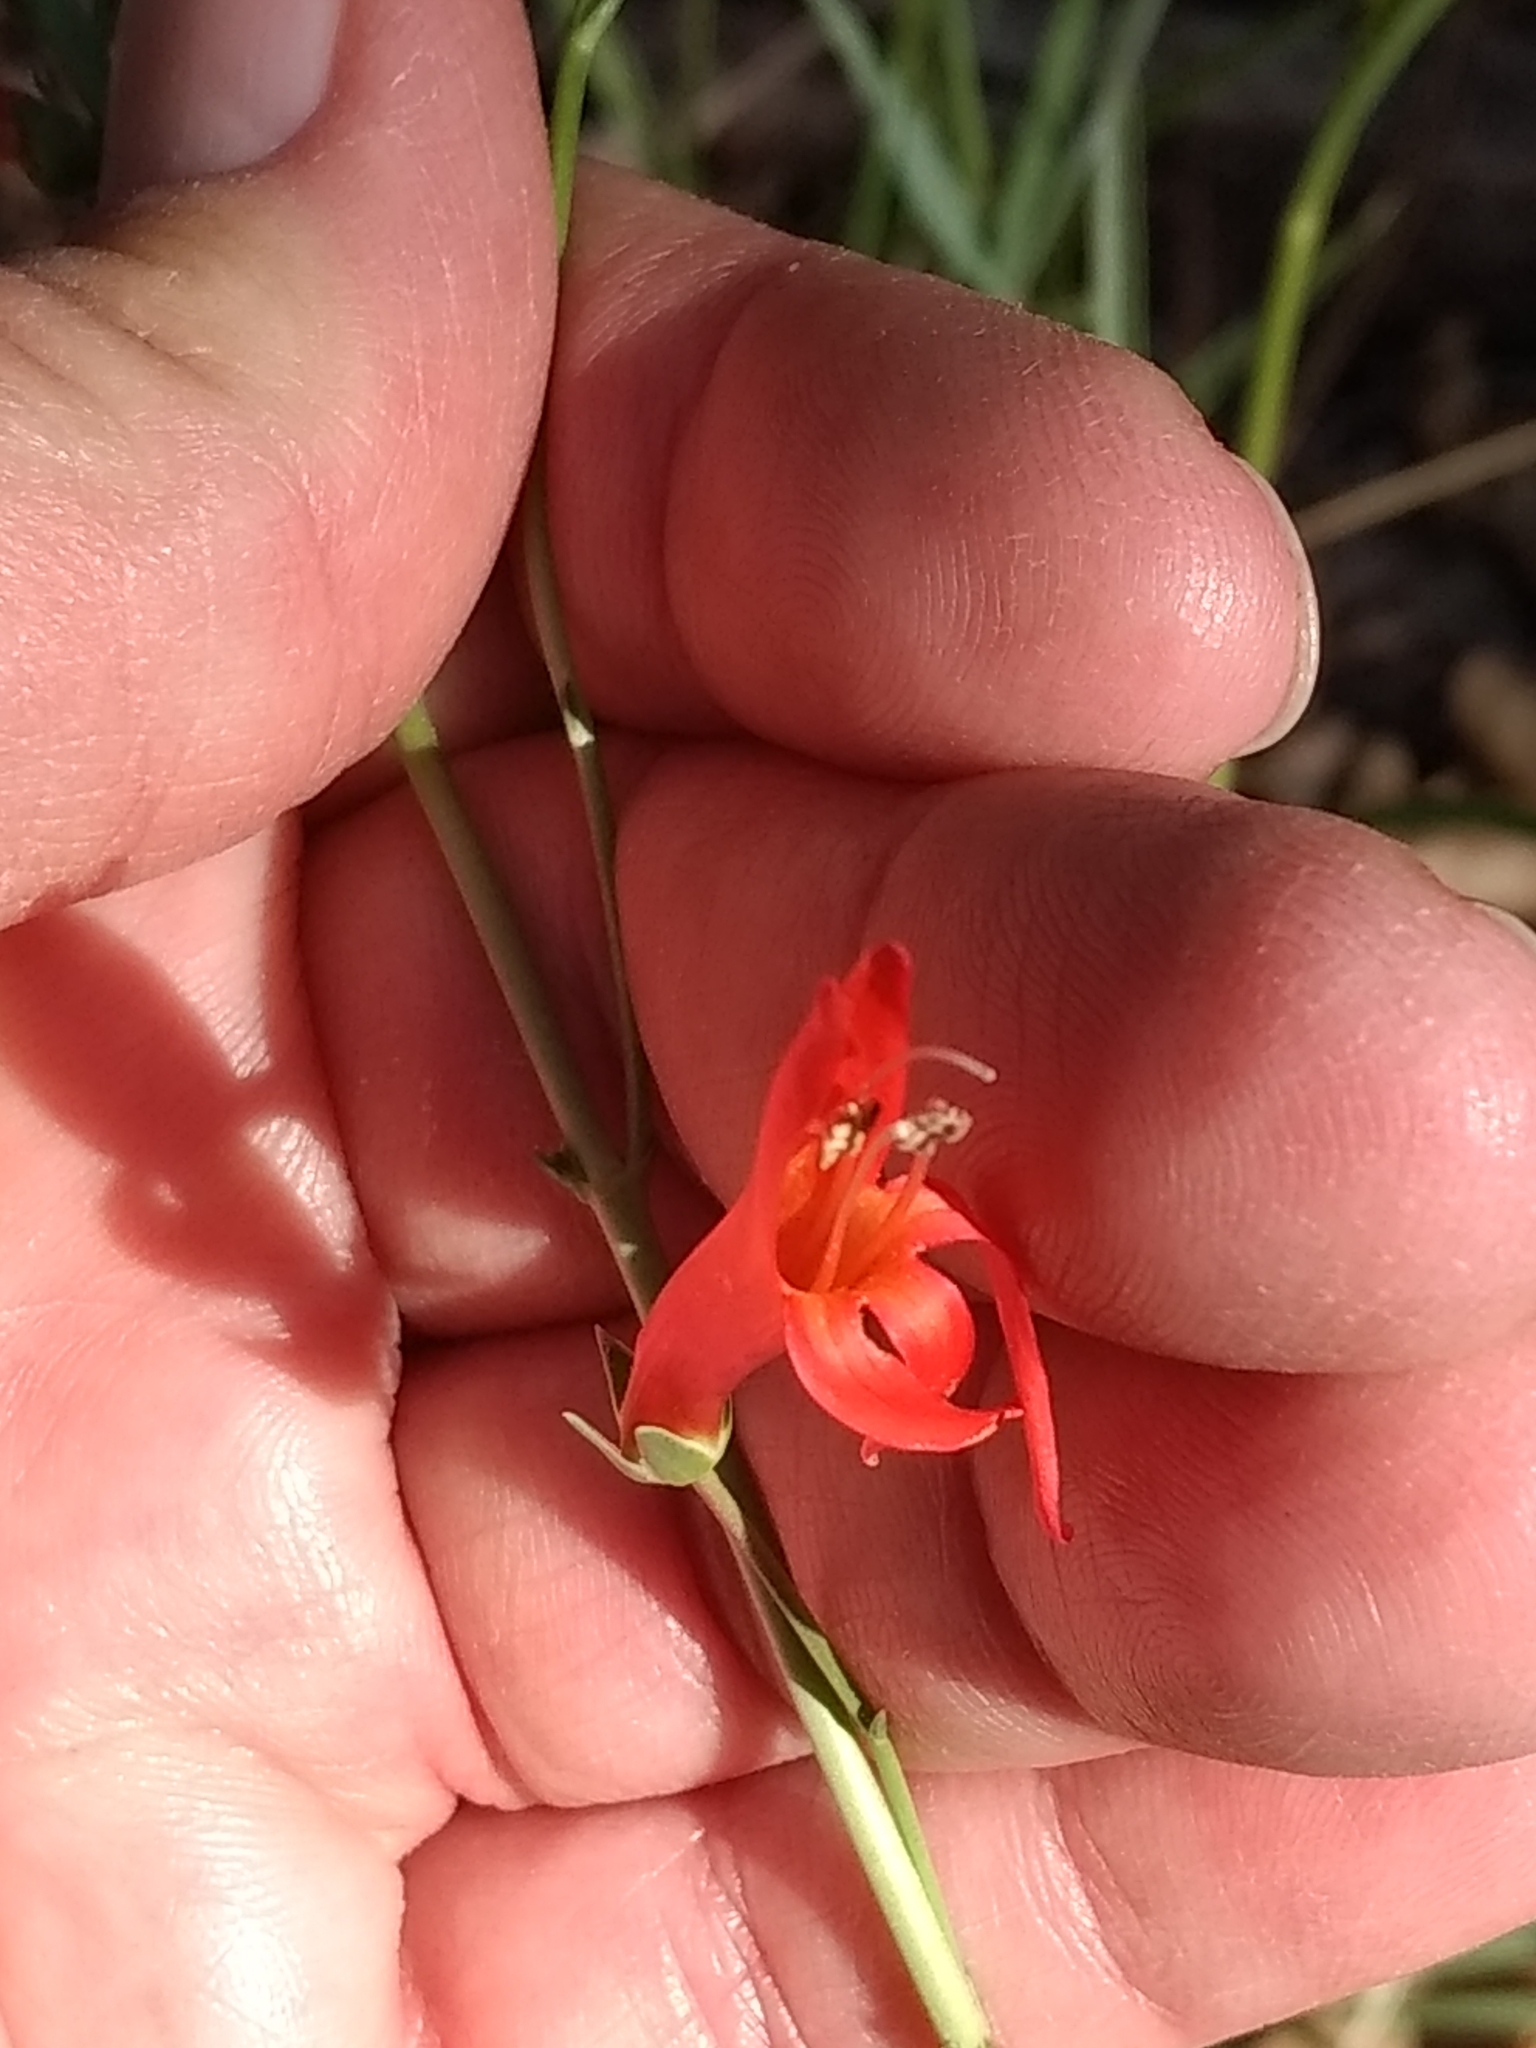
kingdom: Plantae
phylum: Tracheophyta
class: Magnoliopsida
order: Lamiales
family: Plantaginaceae
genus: Penstemon
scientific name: Penstemon labrosus
